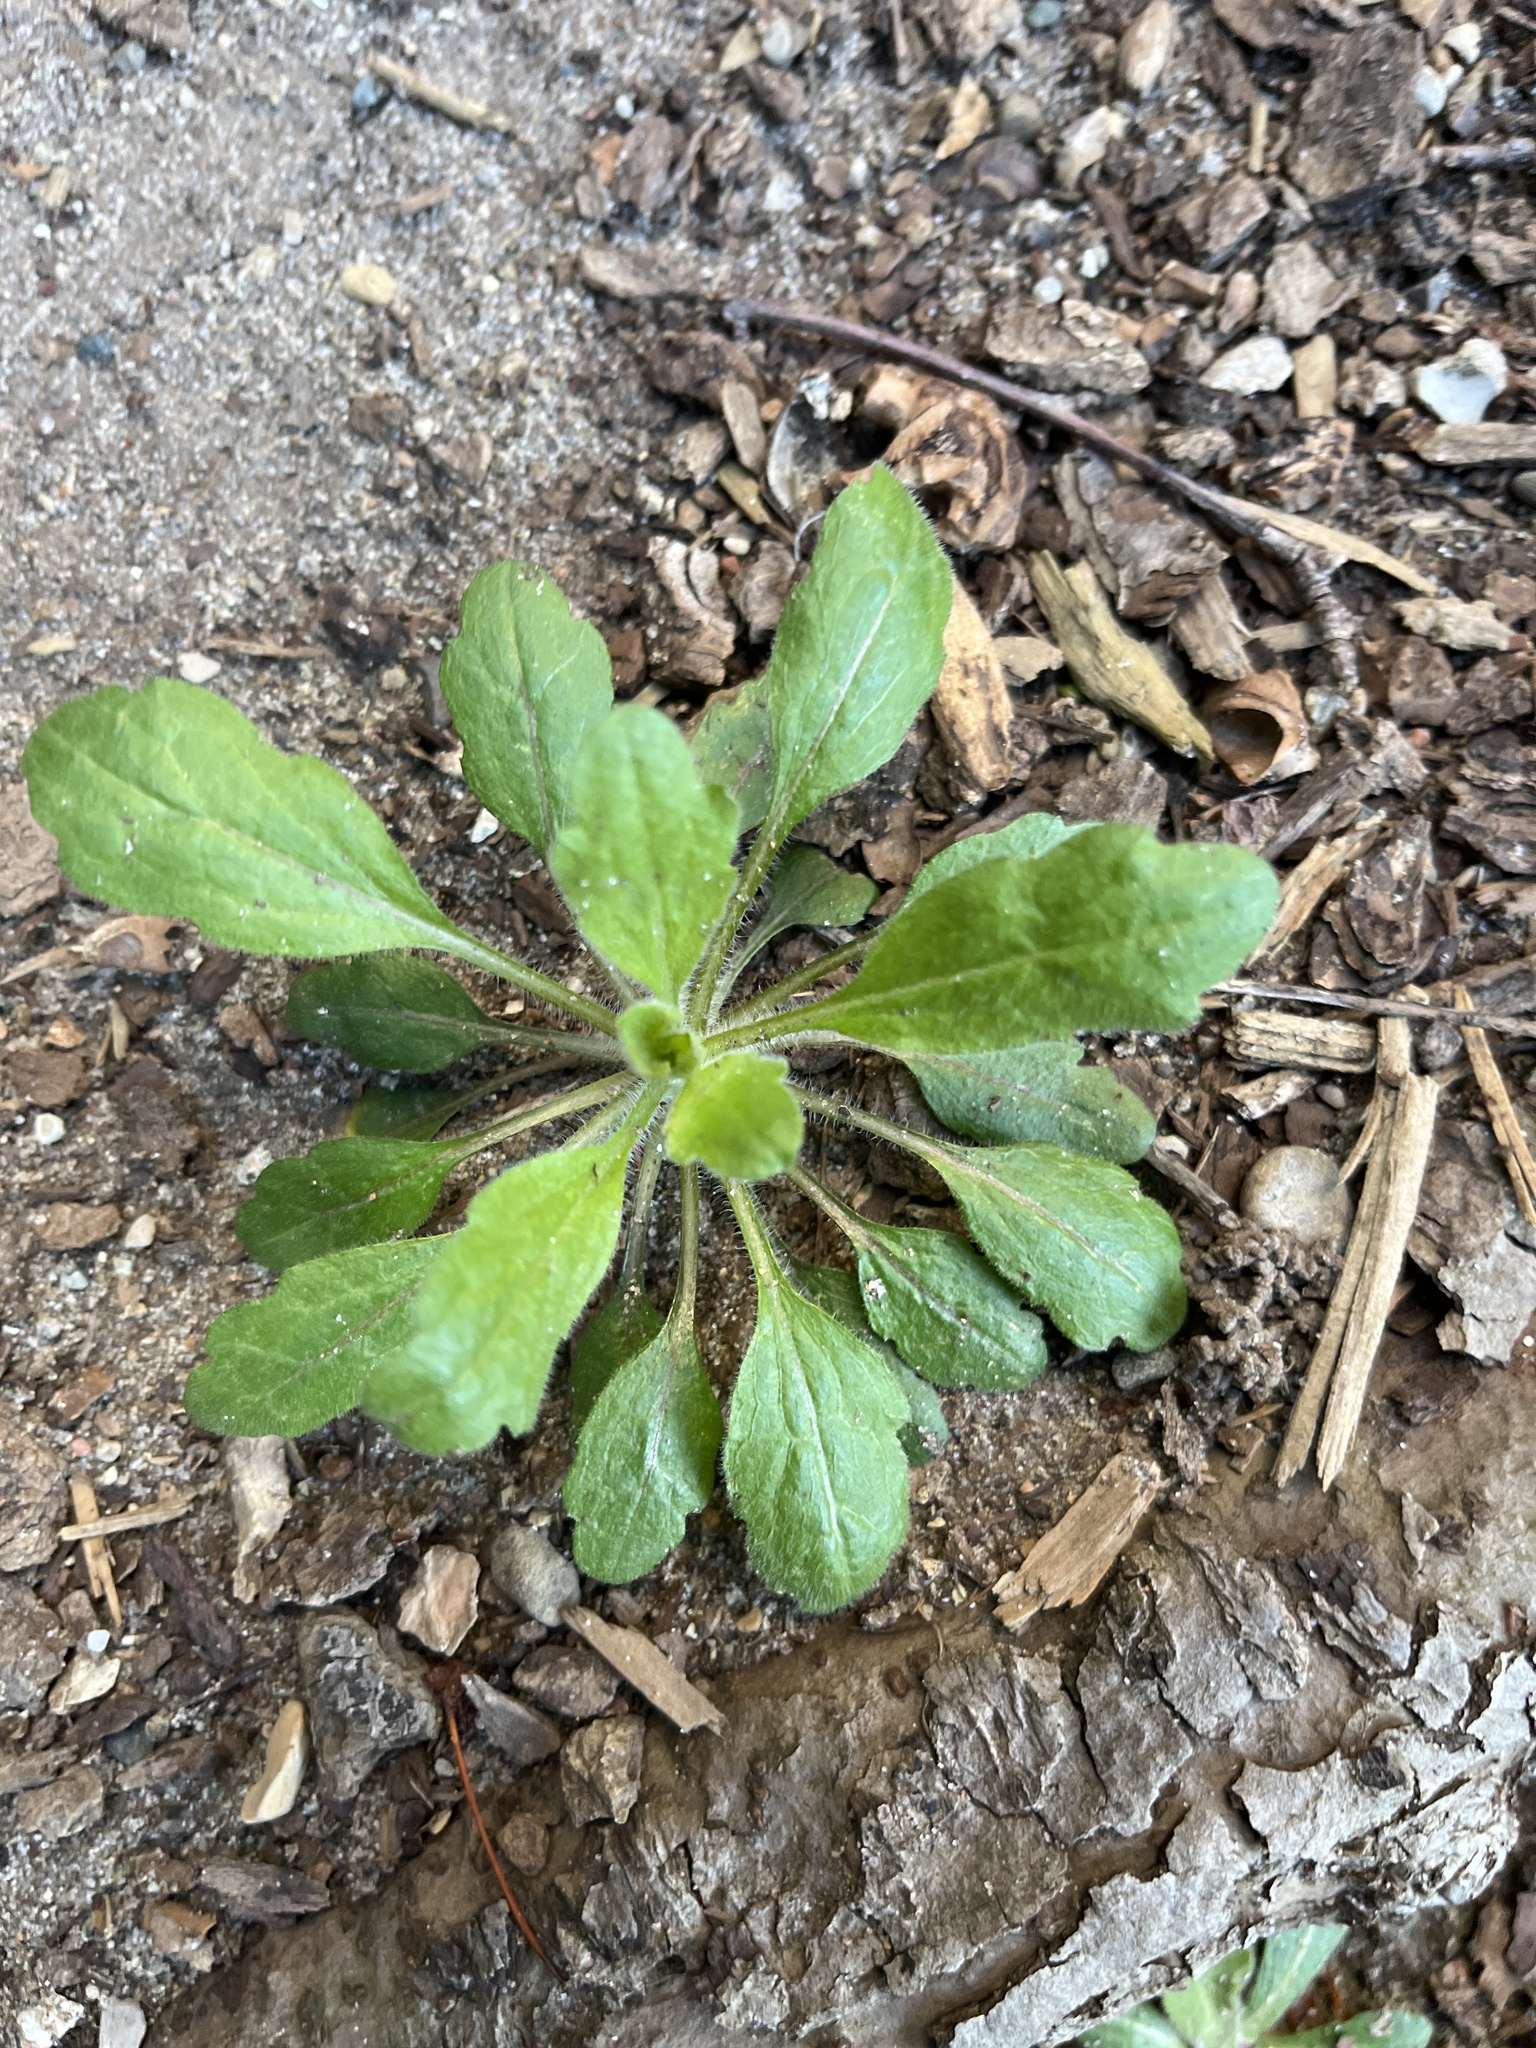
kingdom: Plantae
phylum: Tracheophyta
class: Magnoliopsida
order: Asterales
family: Asteraceae
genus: Erigeron
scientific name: Erigeron canadensis
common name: Canadian fleabane
